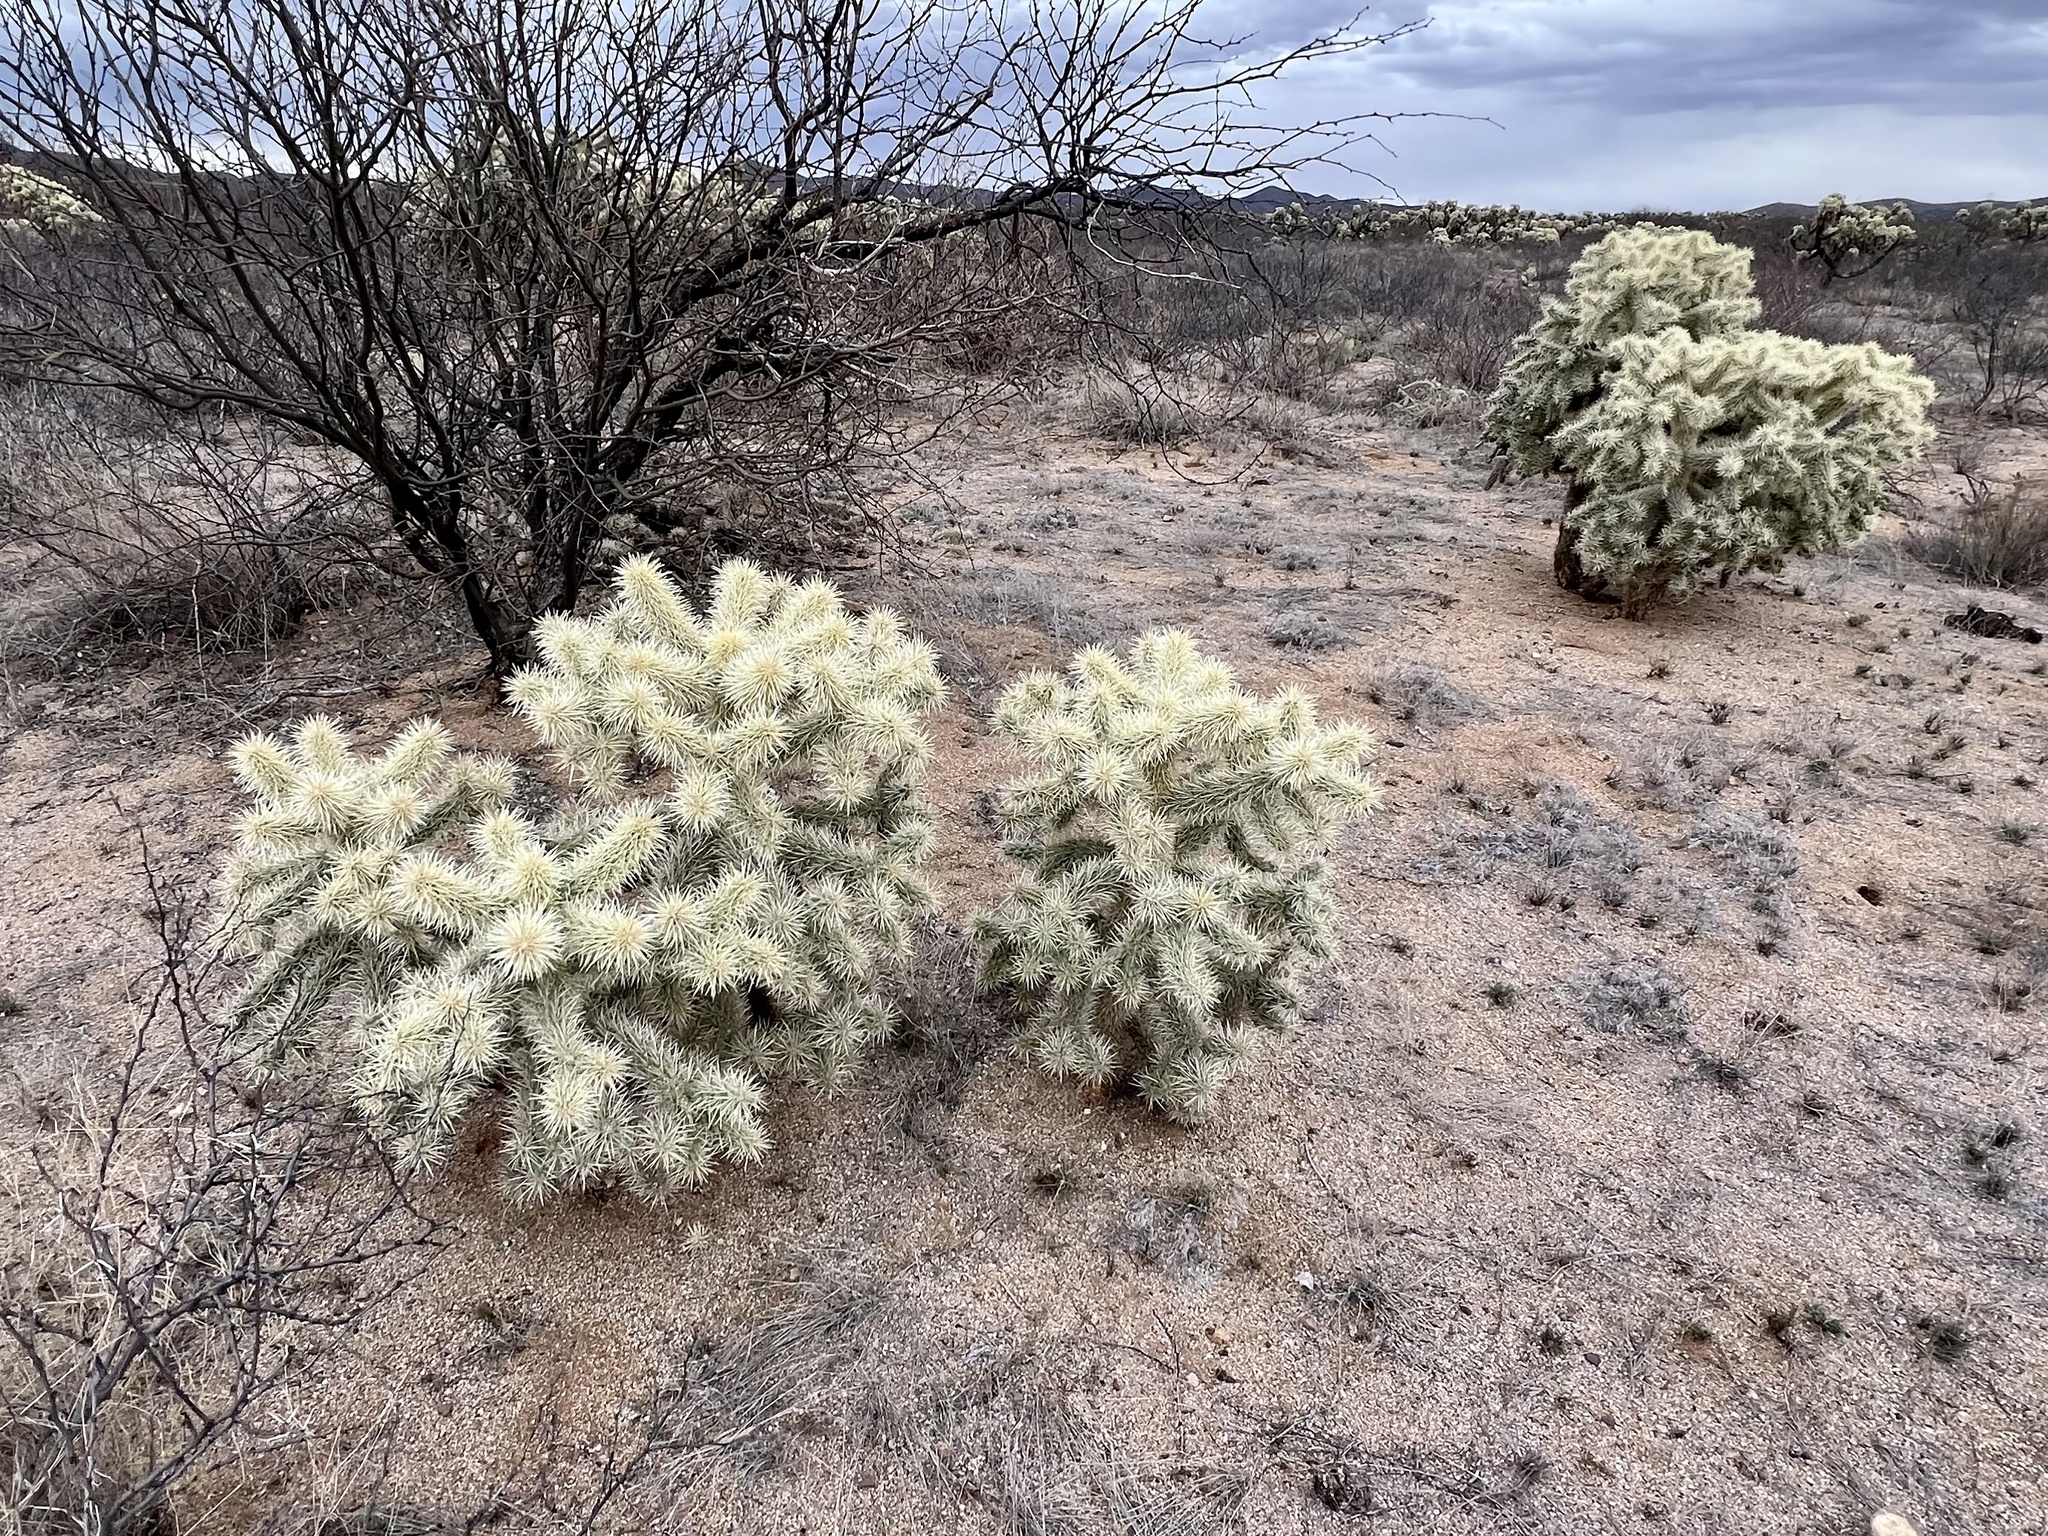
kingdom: Plantae
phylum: Tracheophyta
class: Magnoliopsida
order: Caryophyllales
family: Cactaceae
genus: Cylindropuntia
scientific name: Cylindropuntia fulgida
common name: Jumping cholla
